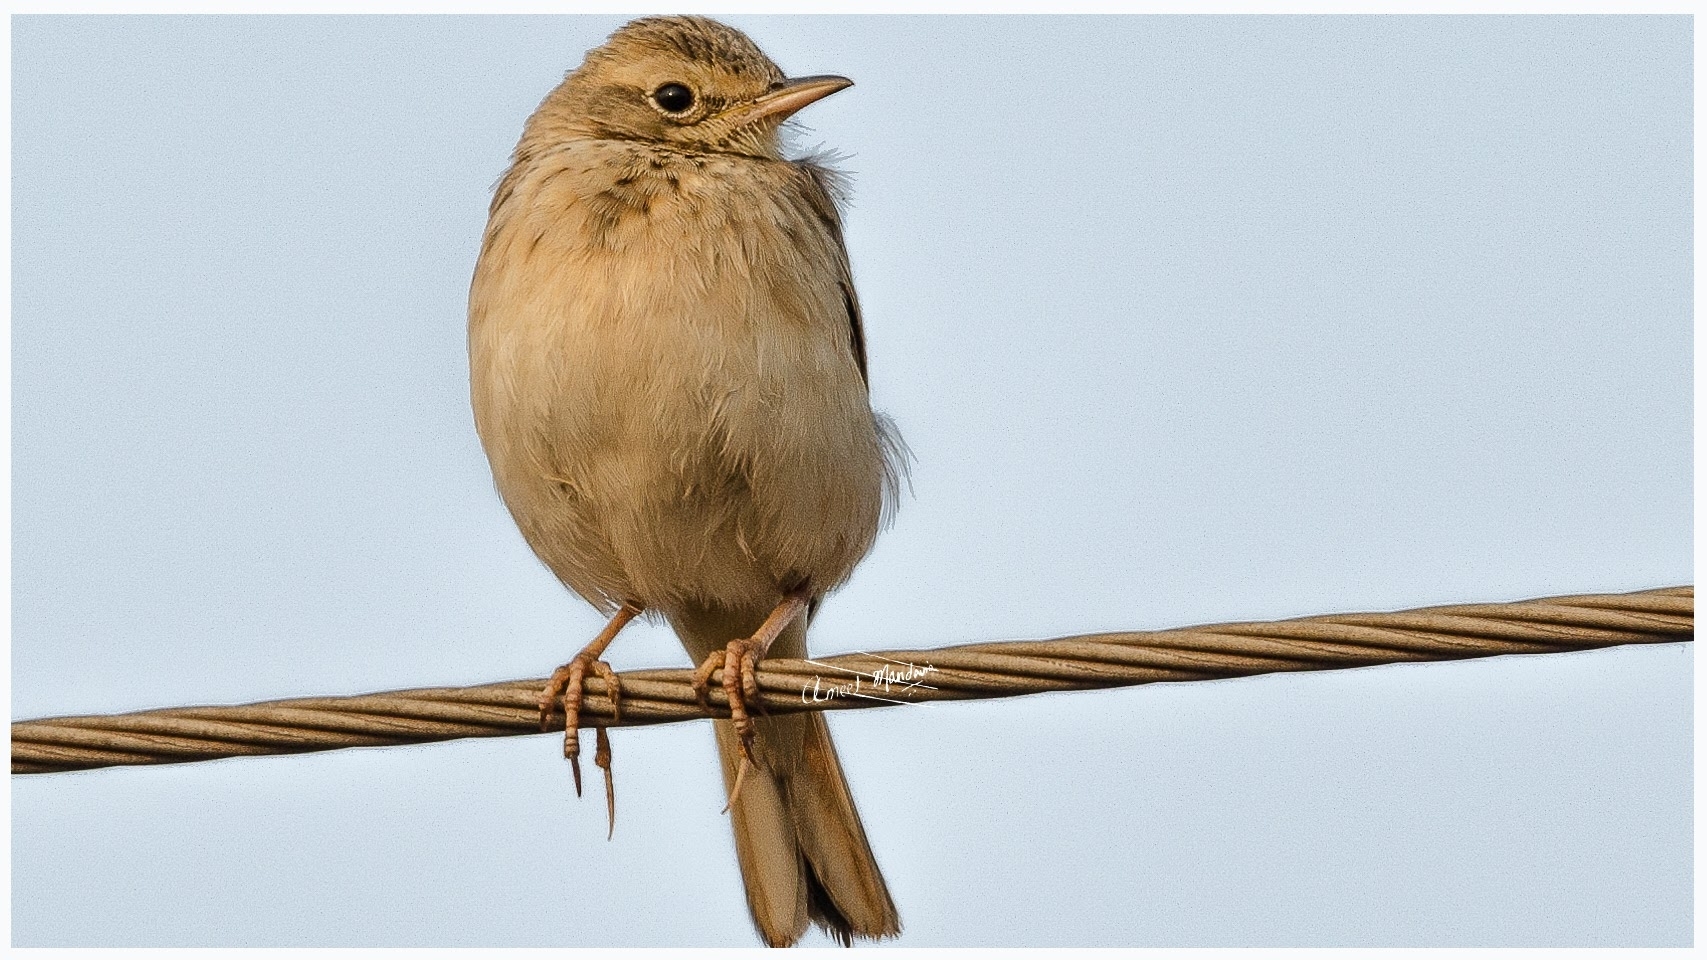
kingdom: Animalia
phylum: Chordata
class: Aves
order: Passeriformes
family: Motacillidae
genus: Anthus
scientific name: Anthus rufulus
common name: Paddyfield pipit
